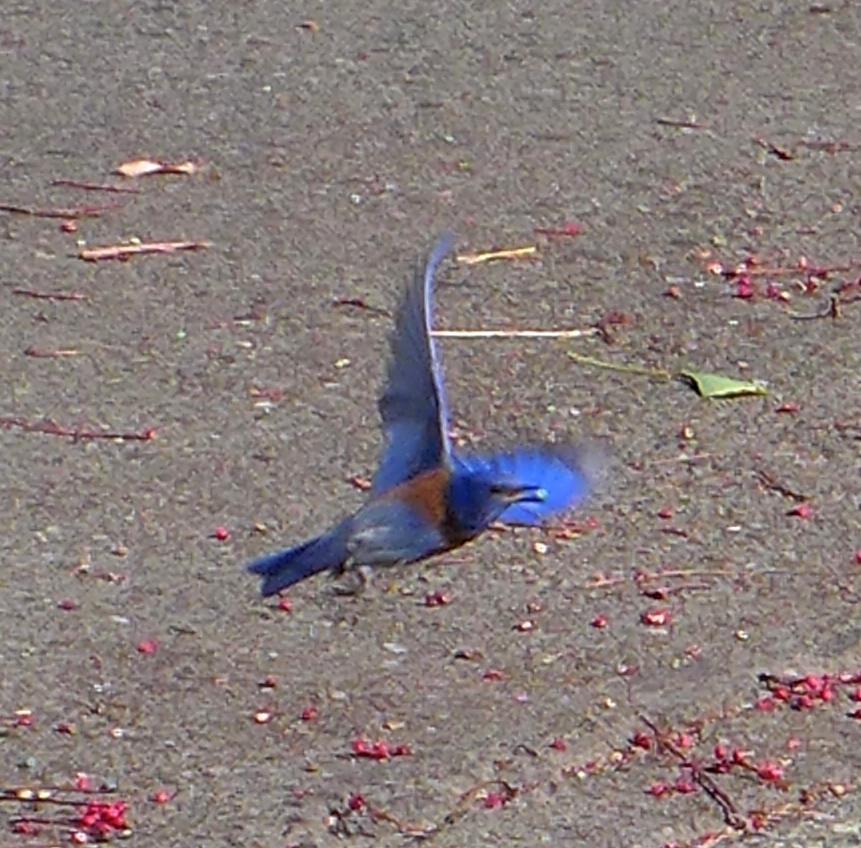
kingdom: Animalia
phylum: Chordata
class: Aves
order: Passeriformes
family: Turdidae
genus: Sialia
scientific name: Sialia mexicana
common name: Western bluebird
